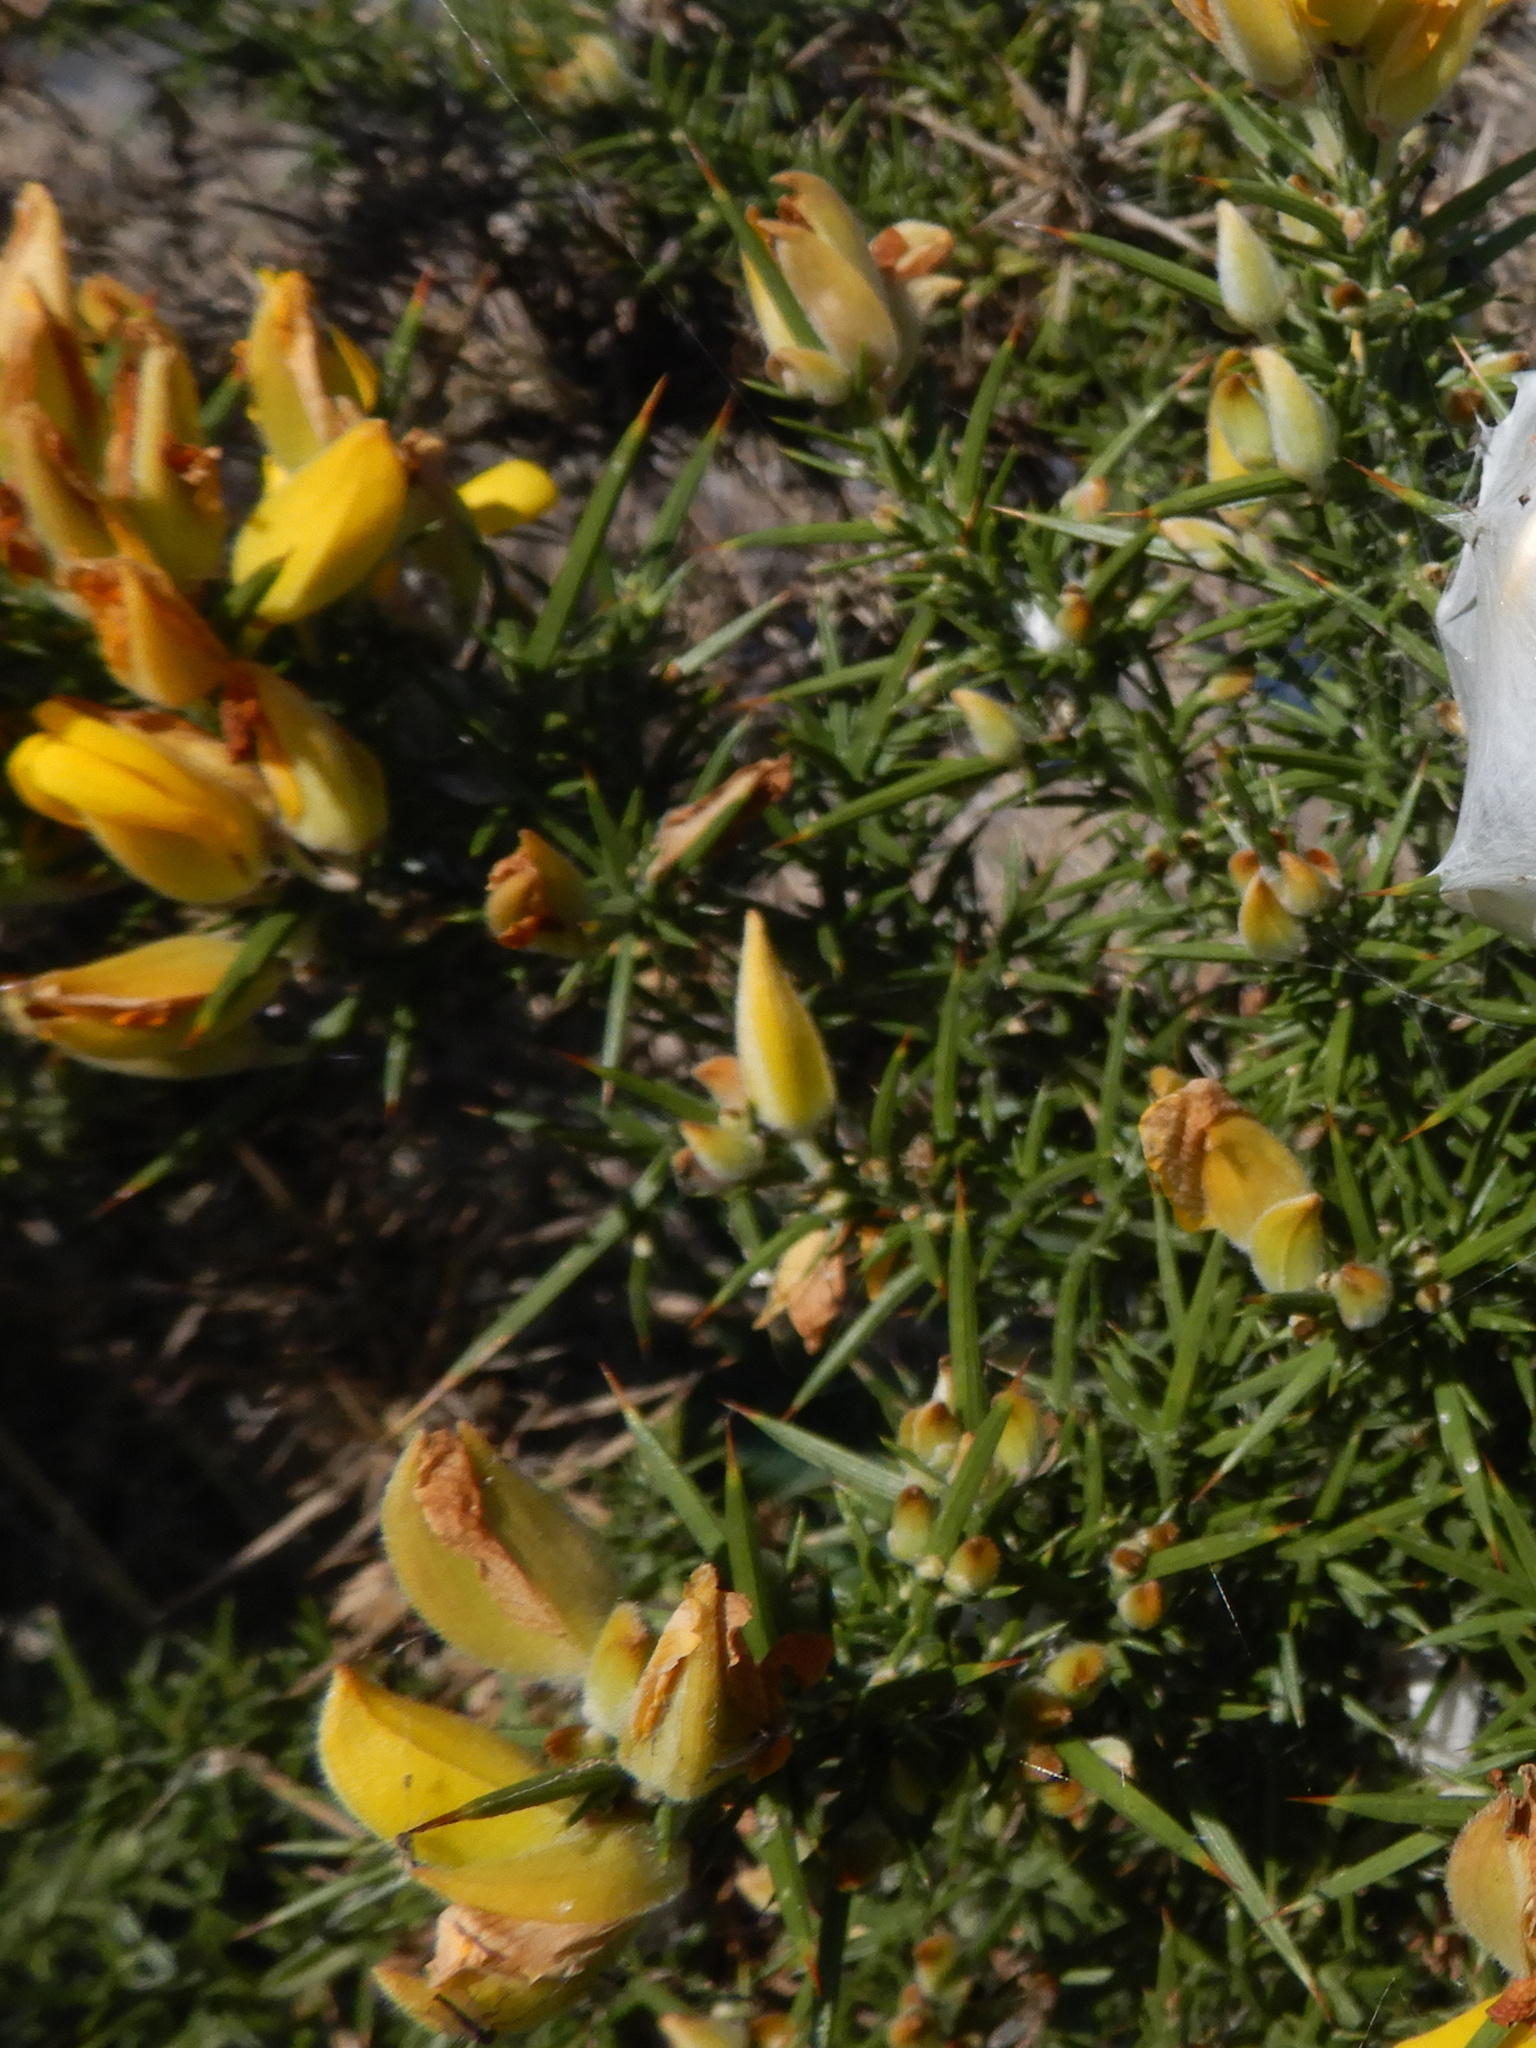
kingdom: Plantae
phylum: Tracheophyta
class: Magnoliopsida
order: Fabales
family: Fabaceae
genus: Ulex
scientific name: Ulex europaeus
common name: Common gorse
